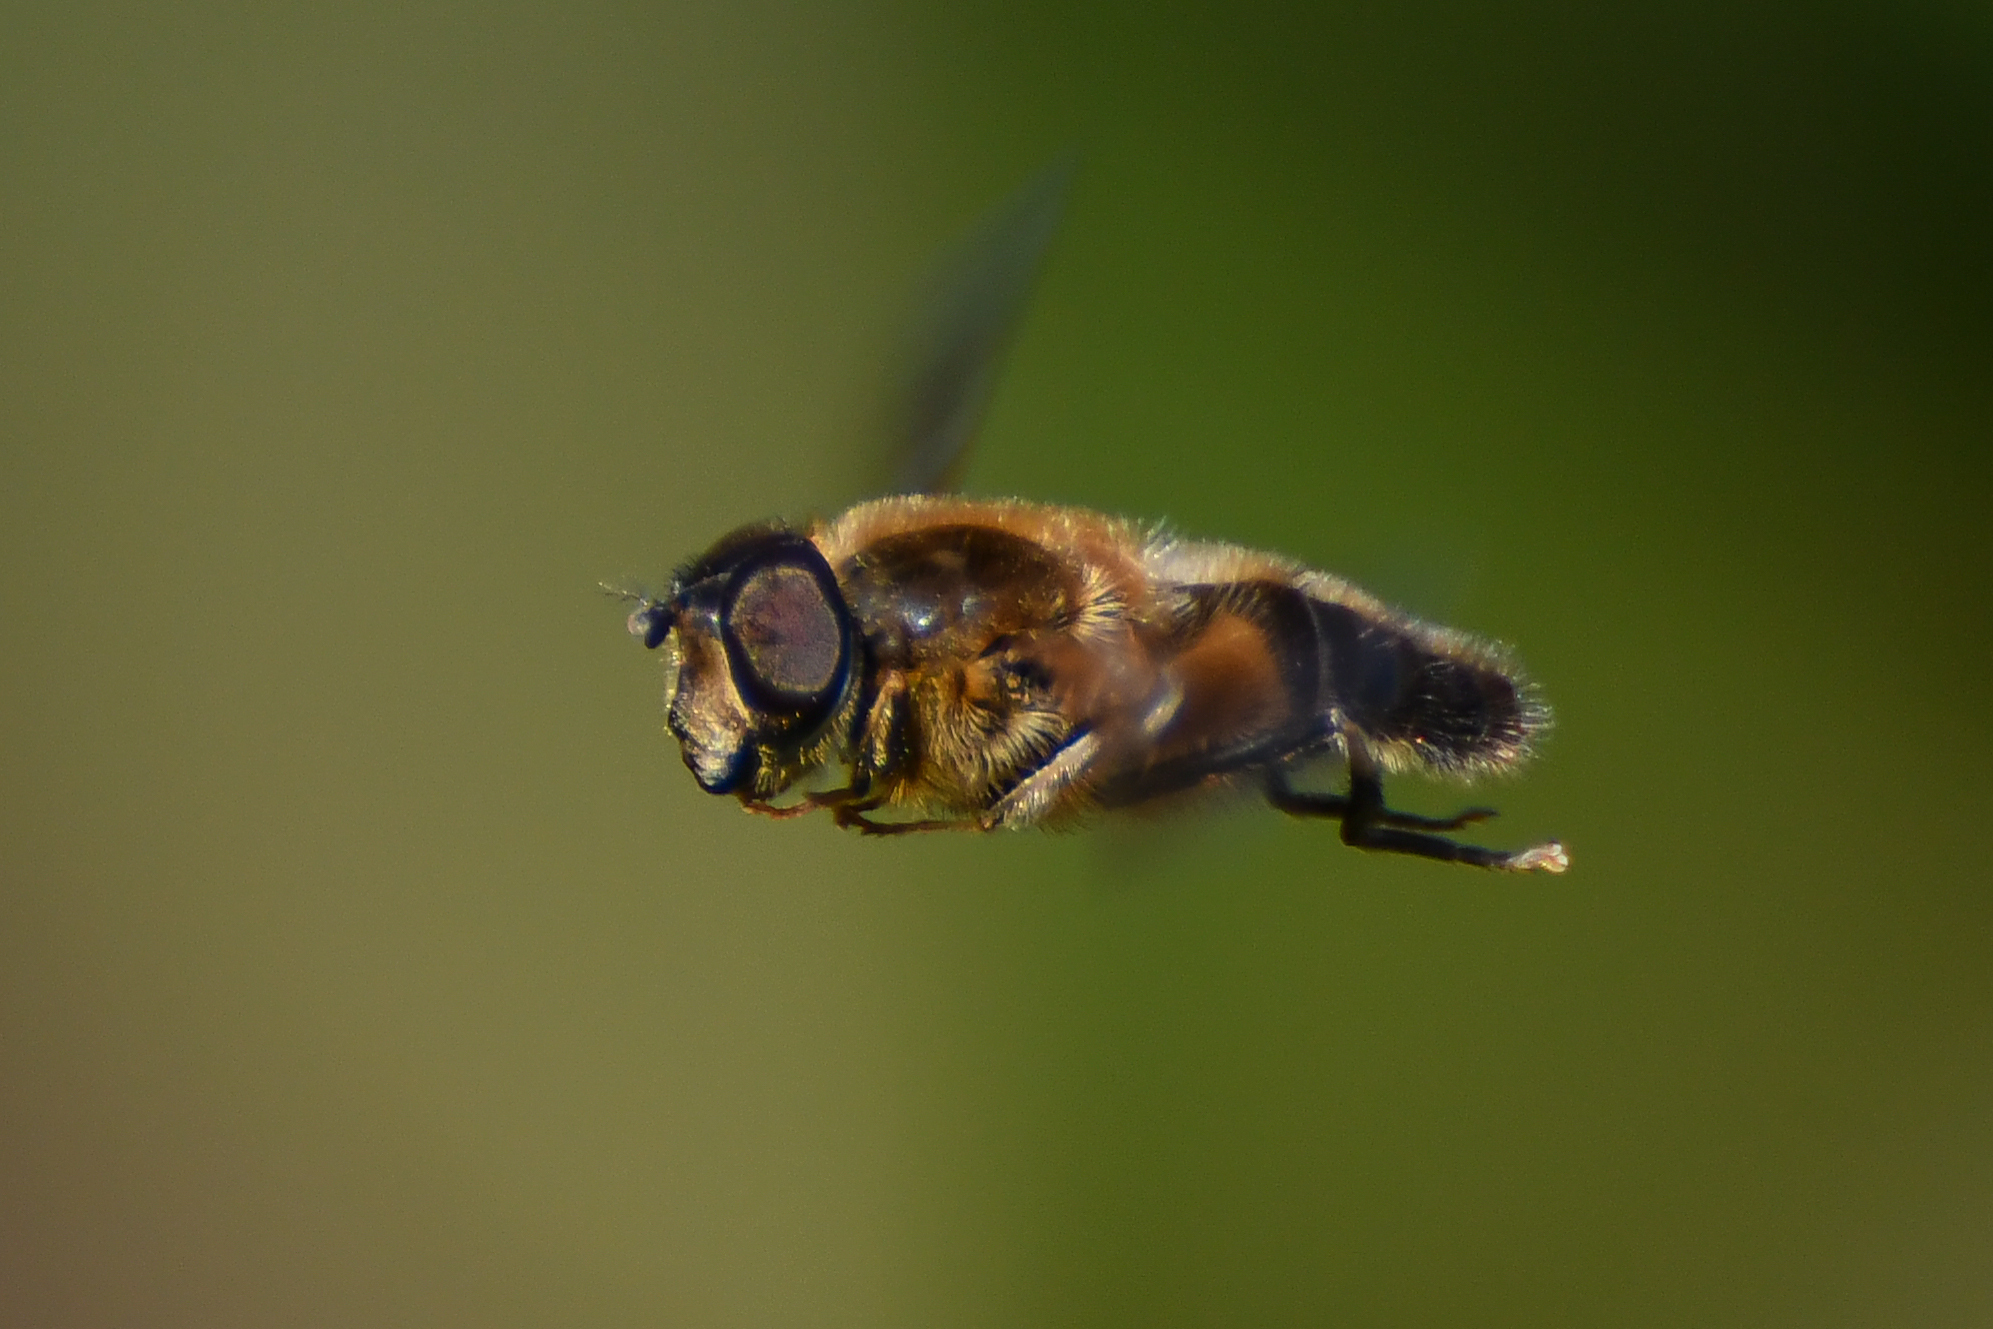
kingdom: Animalia
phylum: Arthropoda
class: Insecta
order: Diptera
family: Syrphidae
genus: Eristalis
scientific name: Eristalis pertinax
